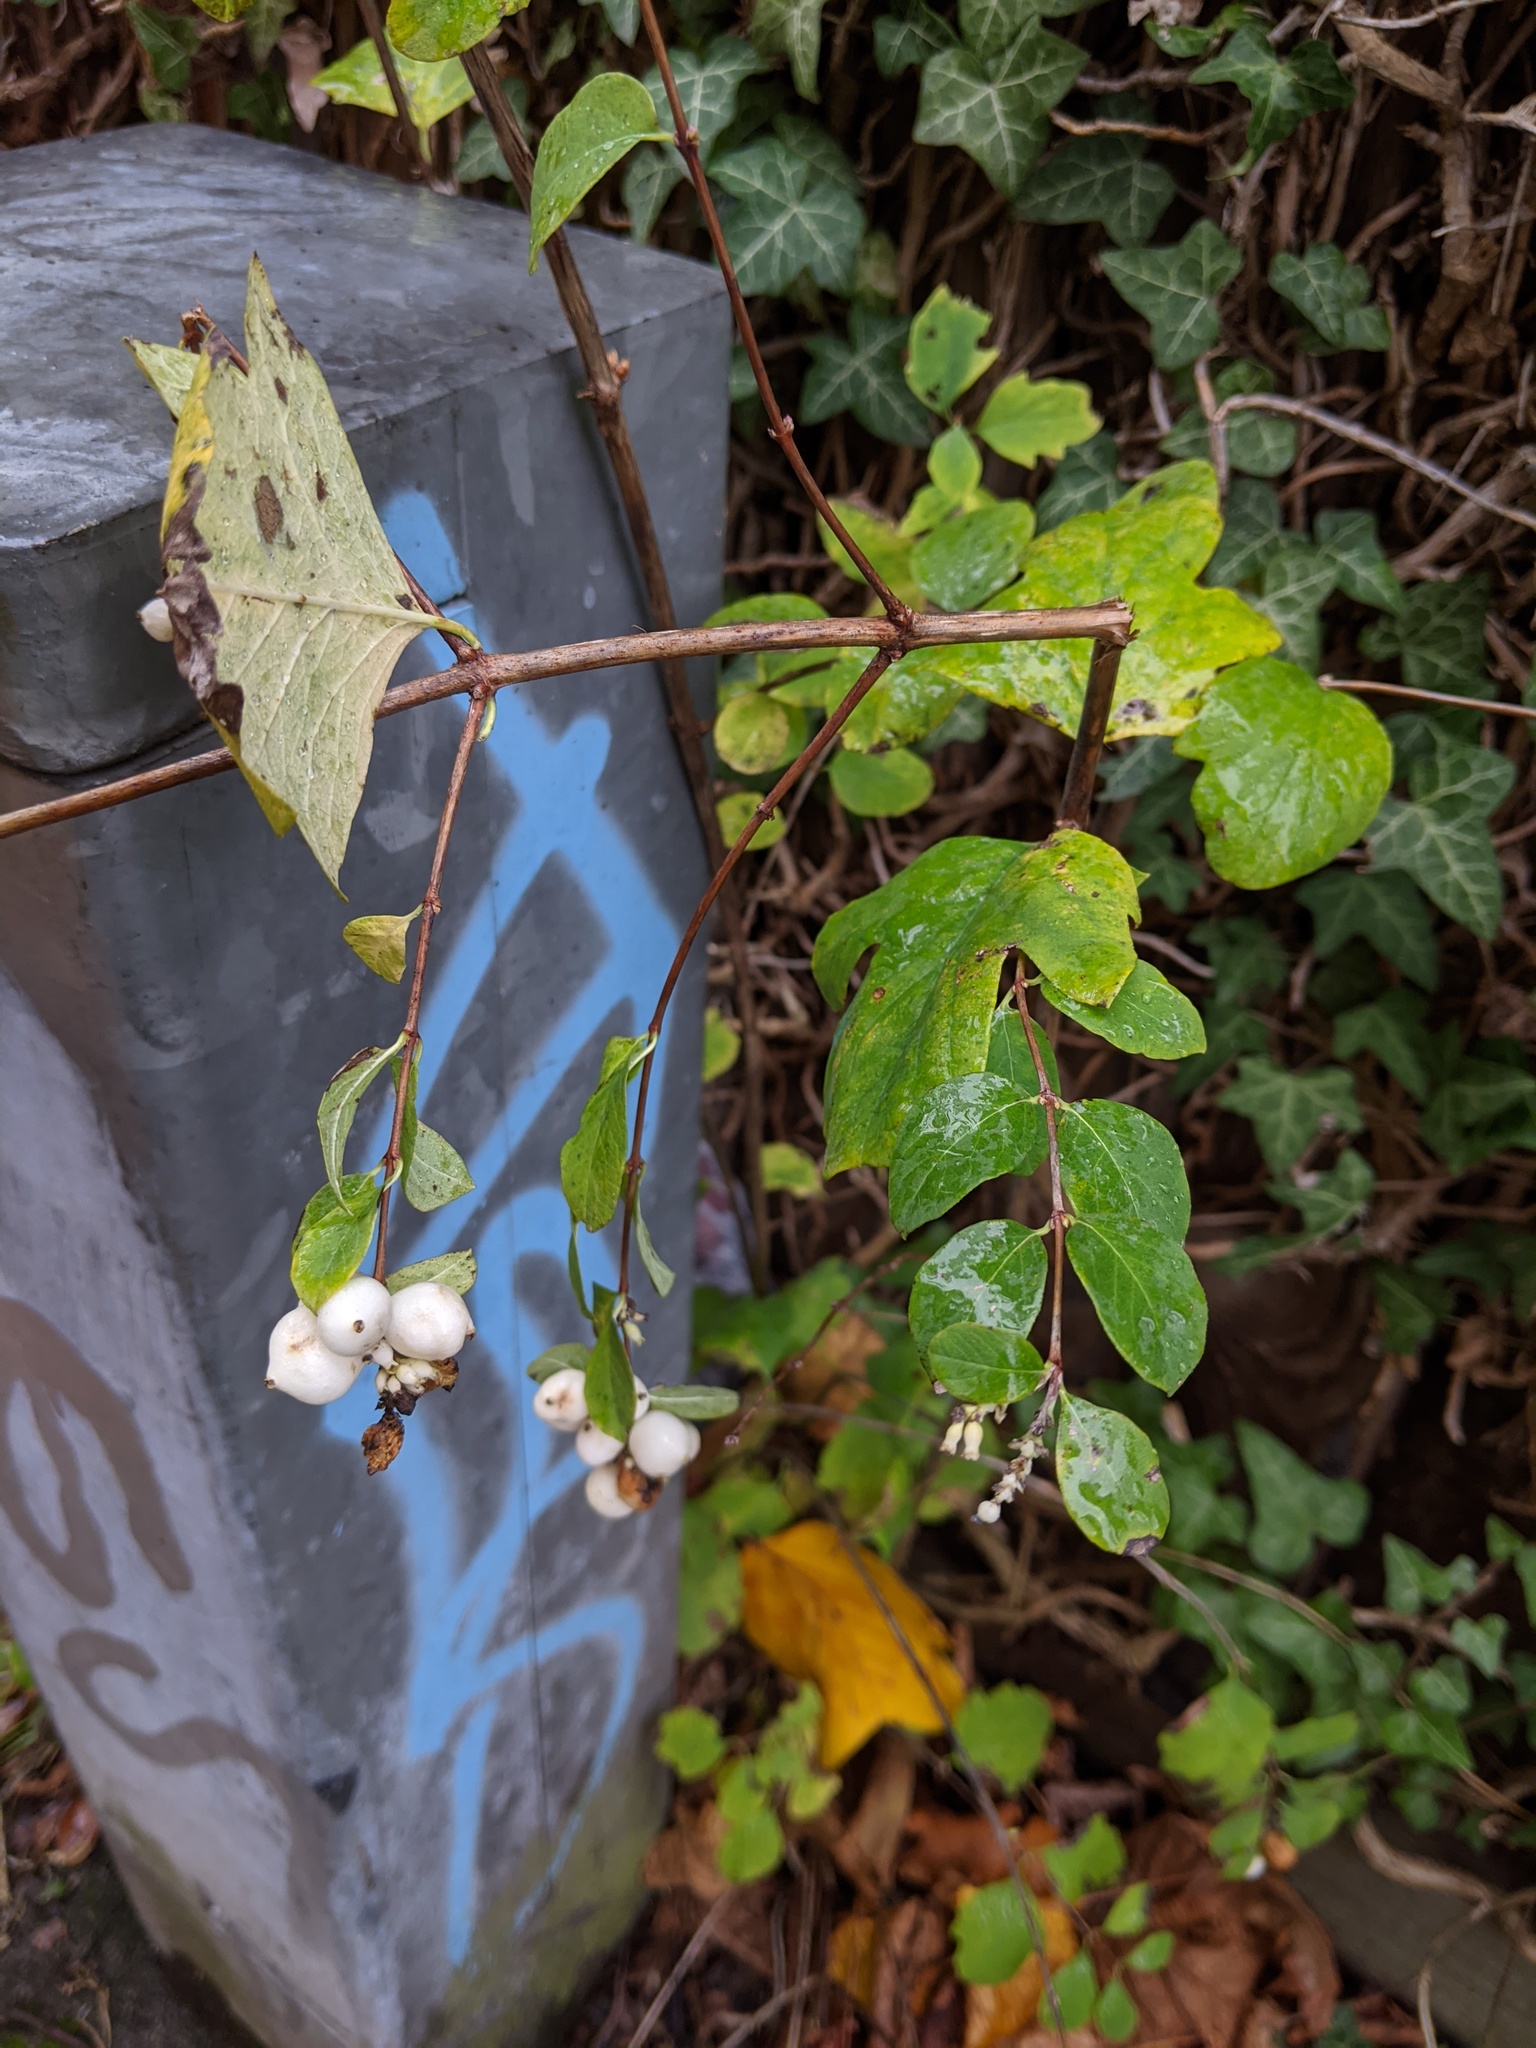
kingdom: Plantae
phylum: Tracheophyta
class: Magnoliopsida
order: Dipsacales
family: Caprifoliaceae
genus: Symphoricarpos
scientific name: Symphoricarpos albus
